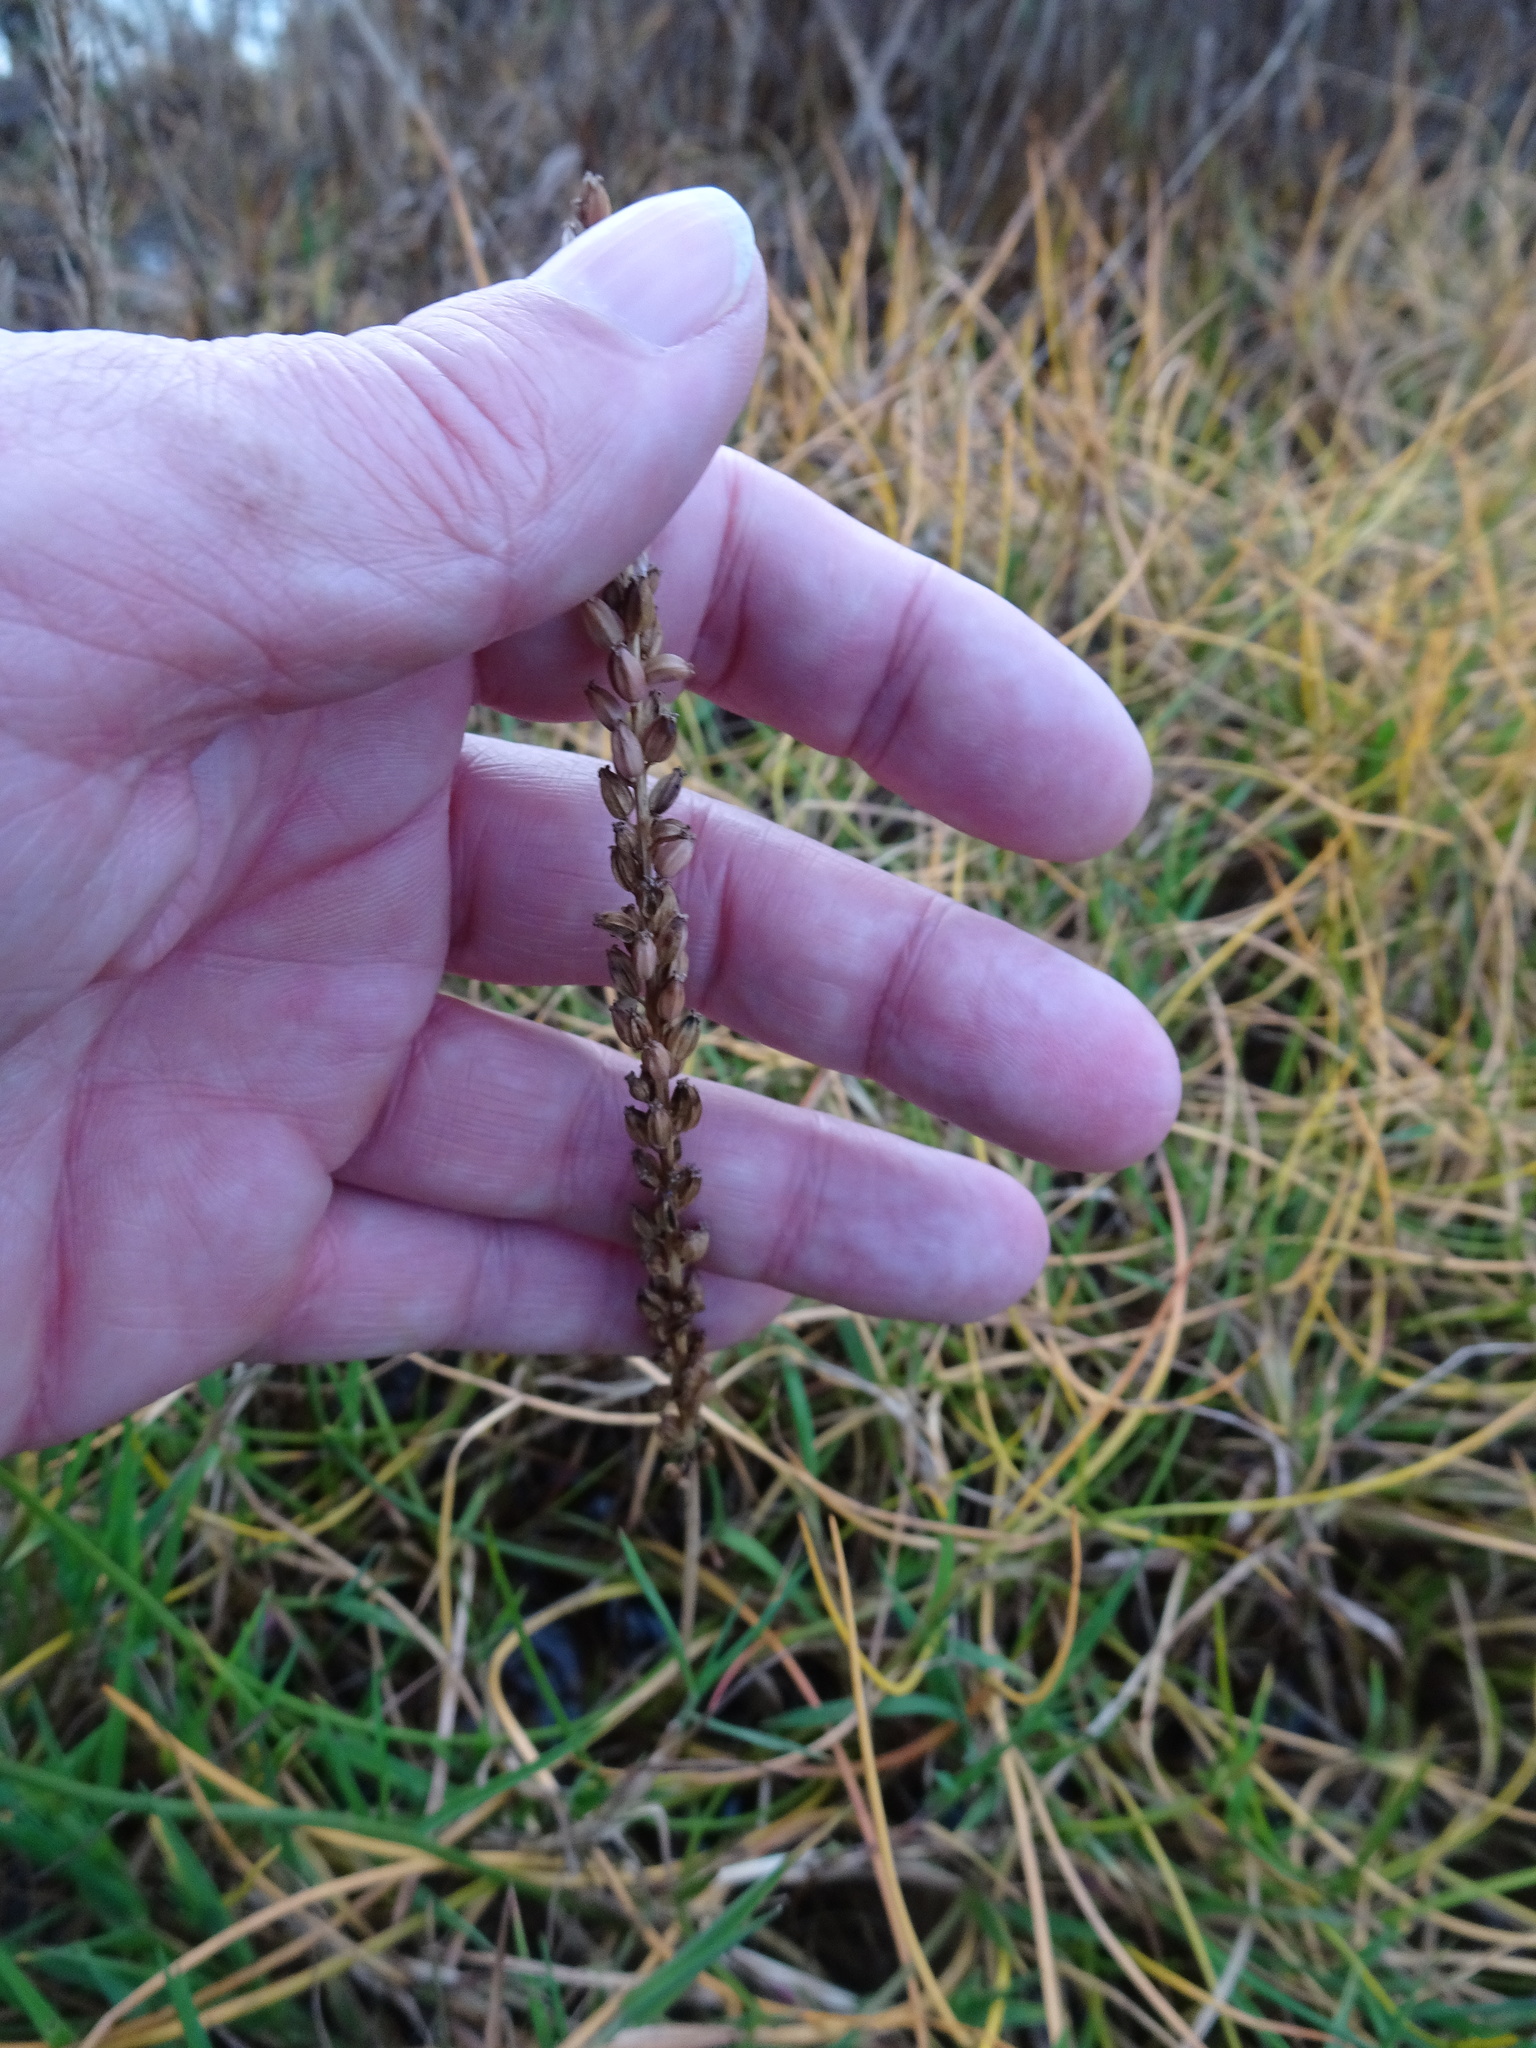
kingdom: Plantae
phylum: Tracheophyta
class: Liliopsida
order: Alismatales
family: Juncaginaceae
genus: Triglochin
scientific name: Triglochin maritima
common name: Sea arrowgrass
